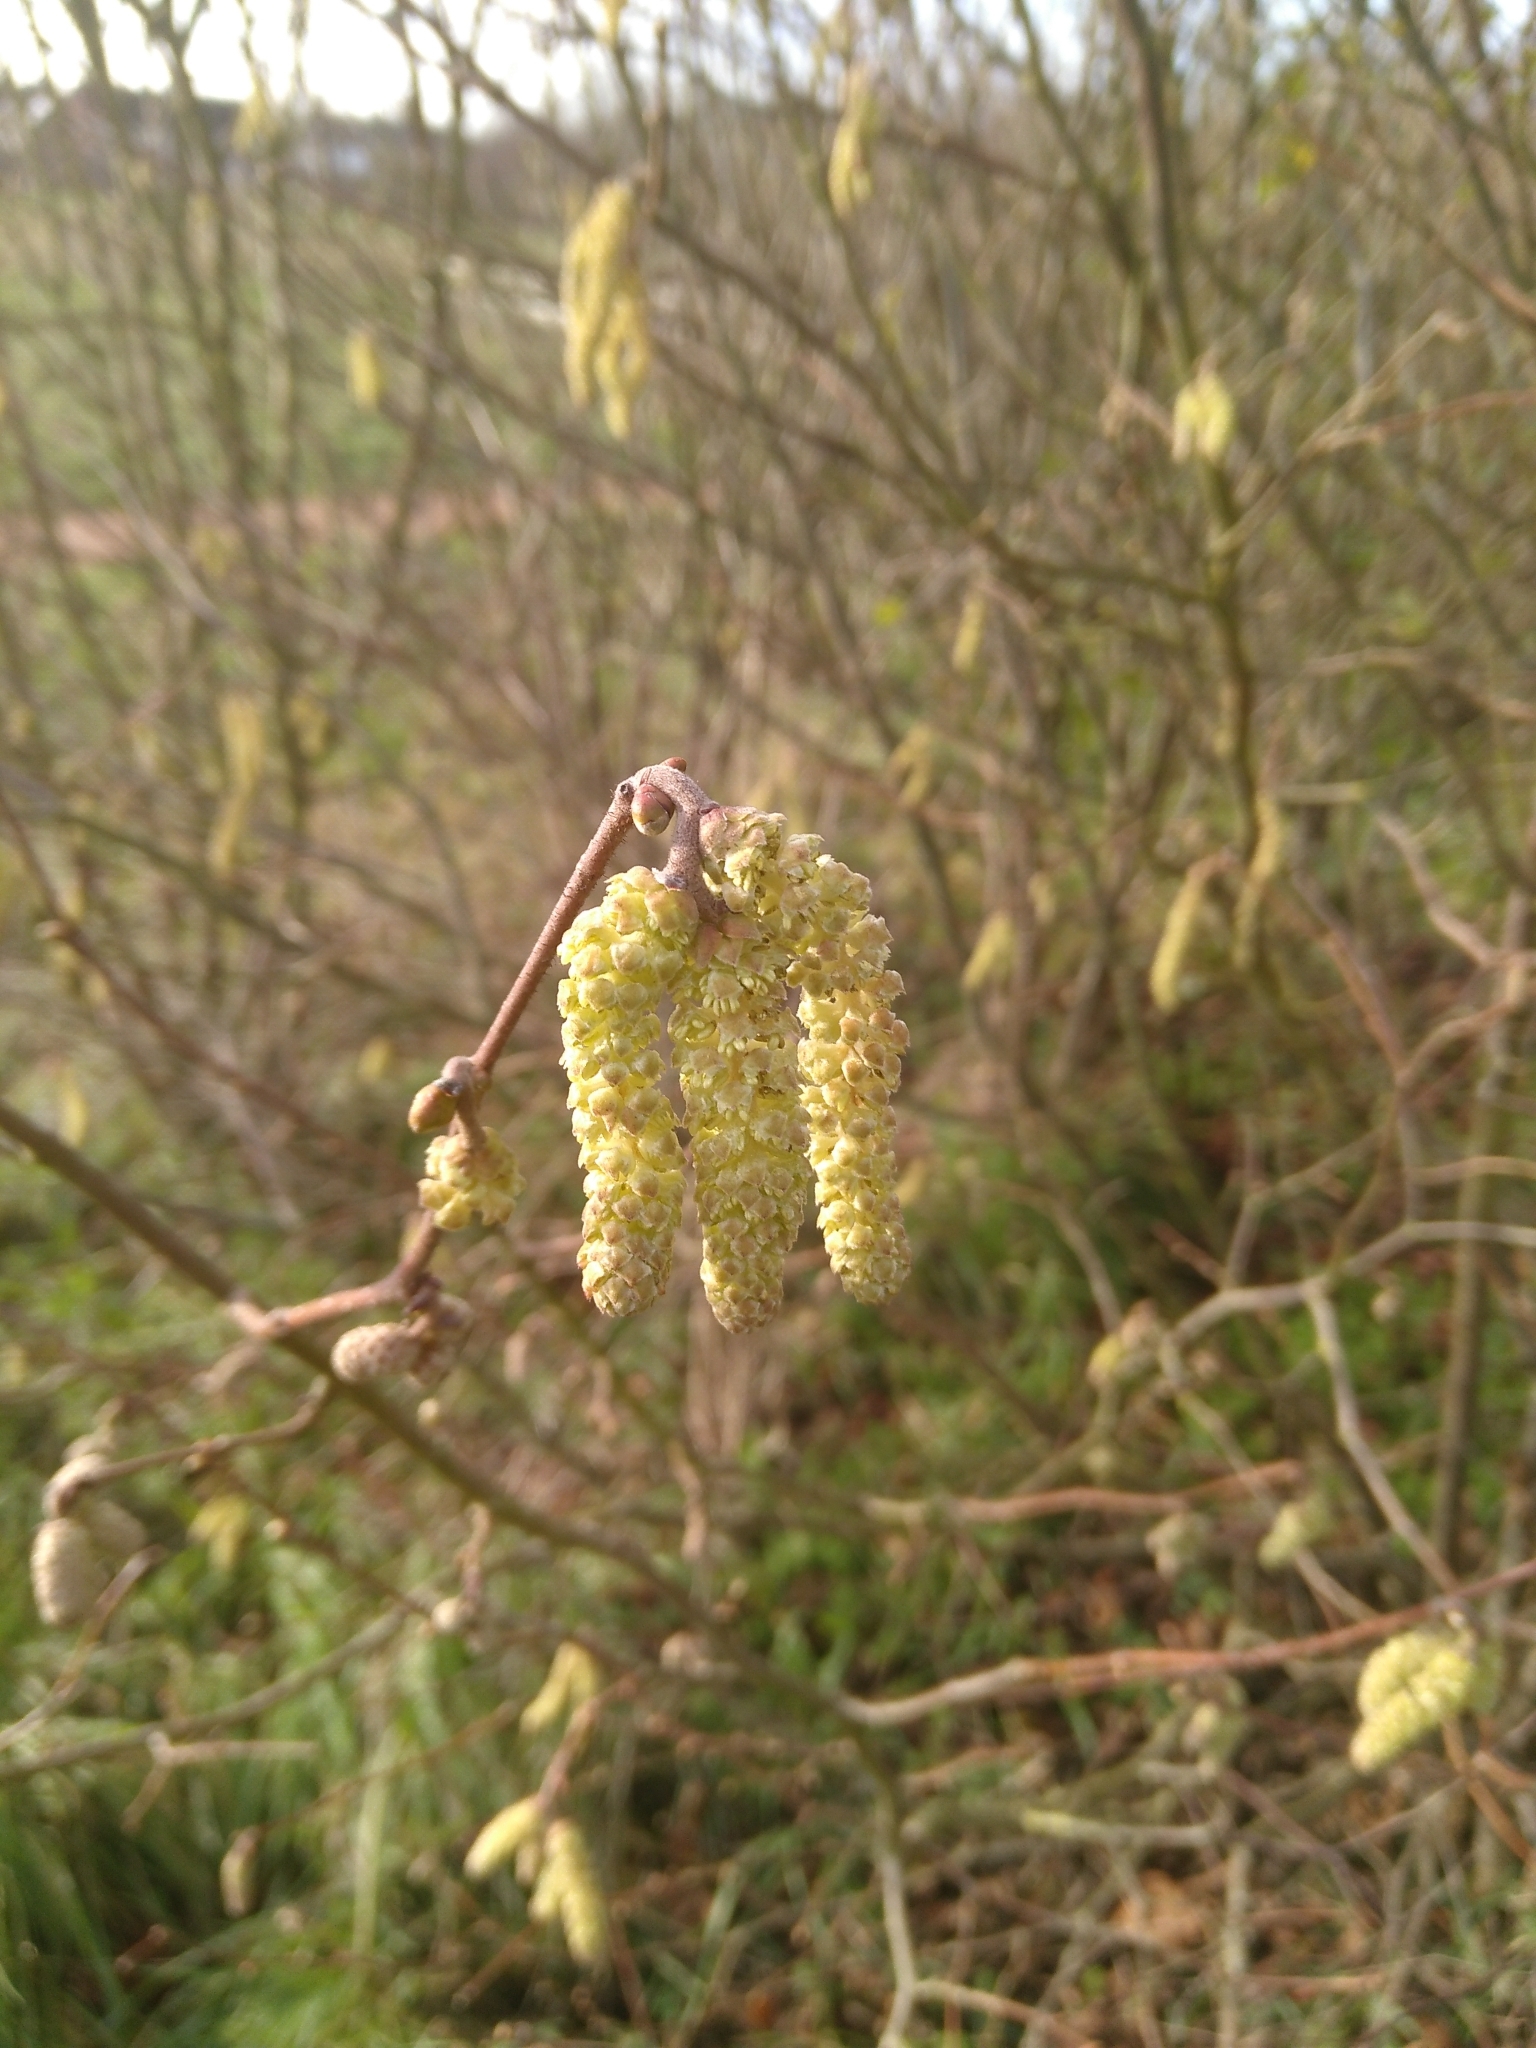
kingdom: Plantae
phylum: Tracheophyta
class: Magnoliopsida
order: Fagales
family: Betulaceae
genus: Corylus
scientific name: Corylus avellana
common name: European hazel
